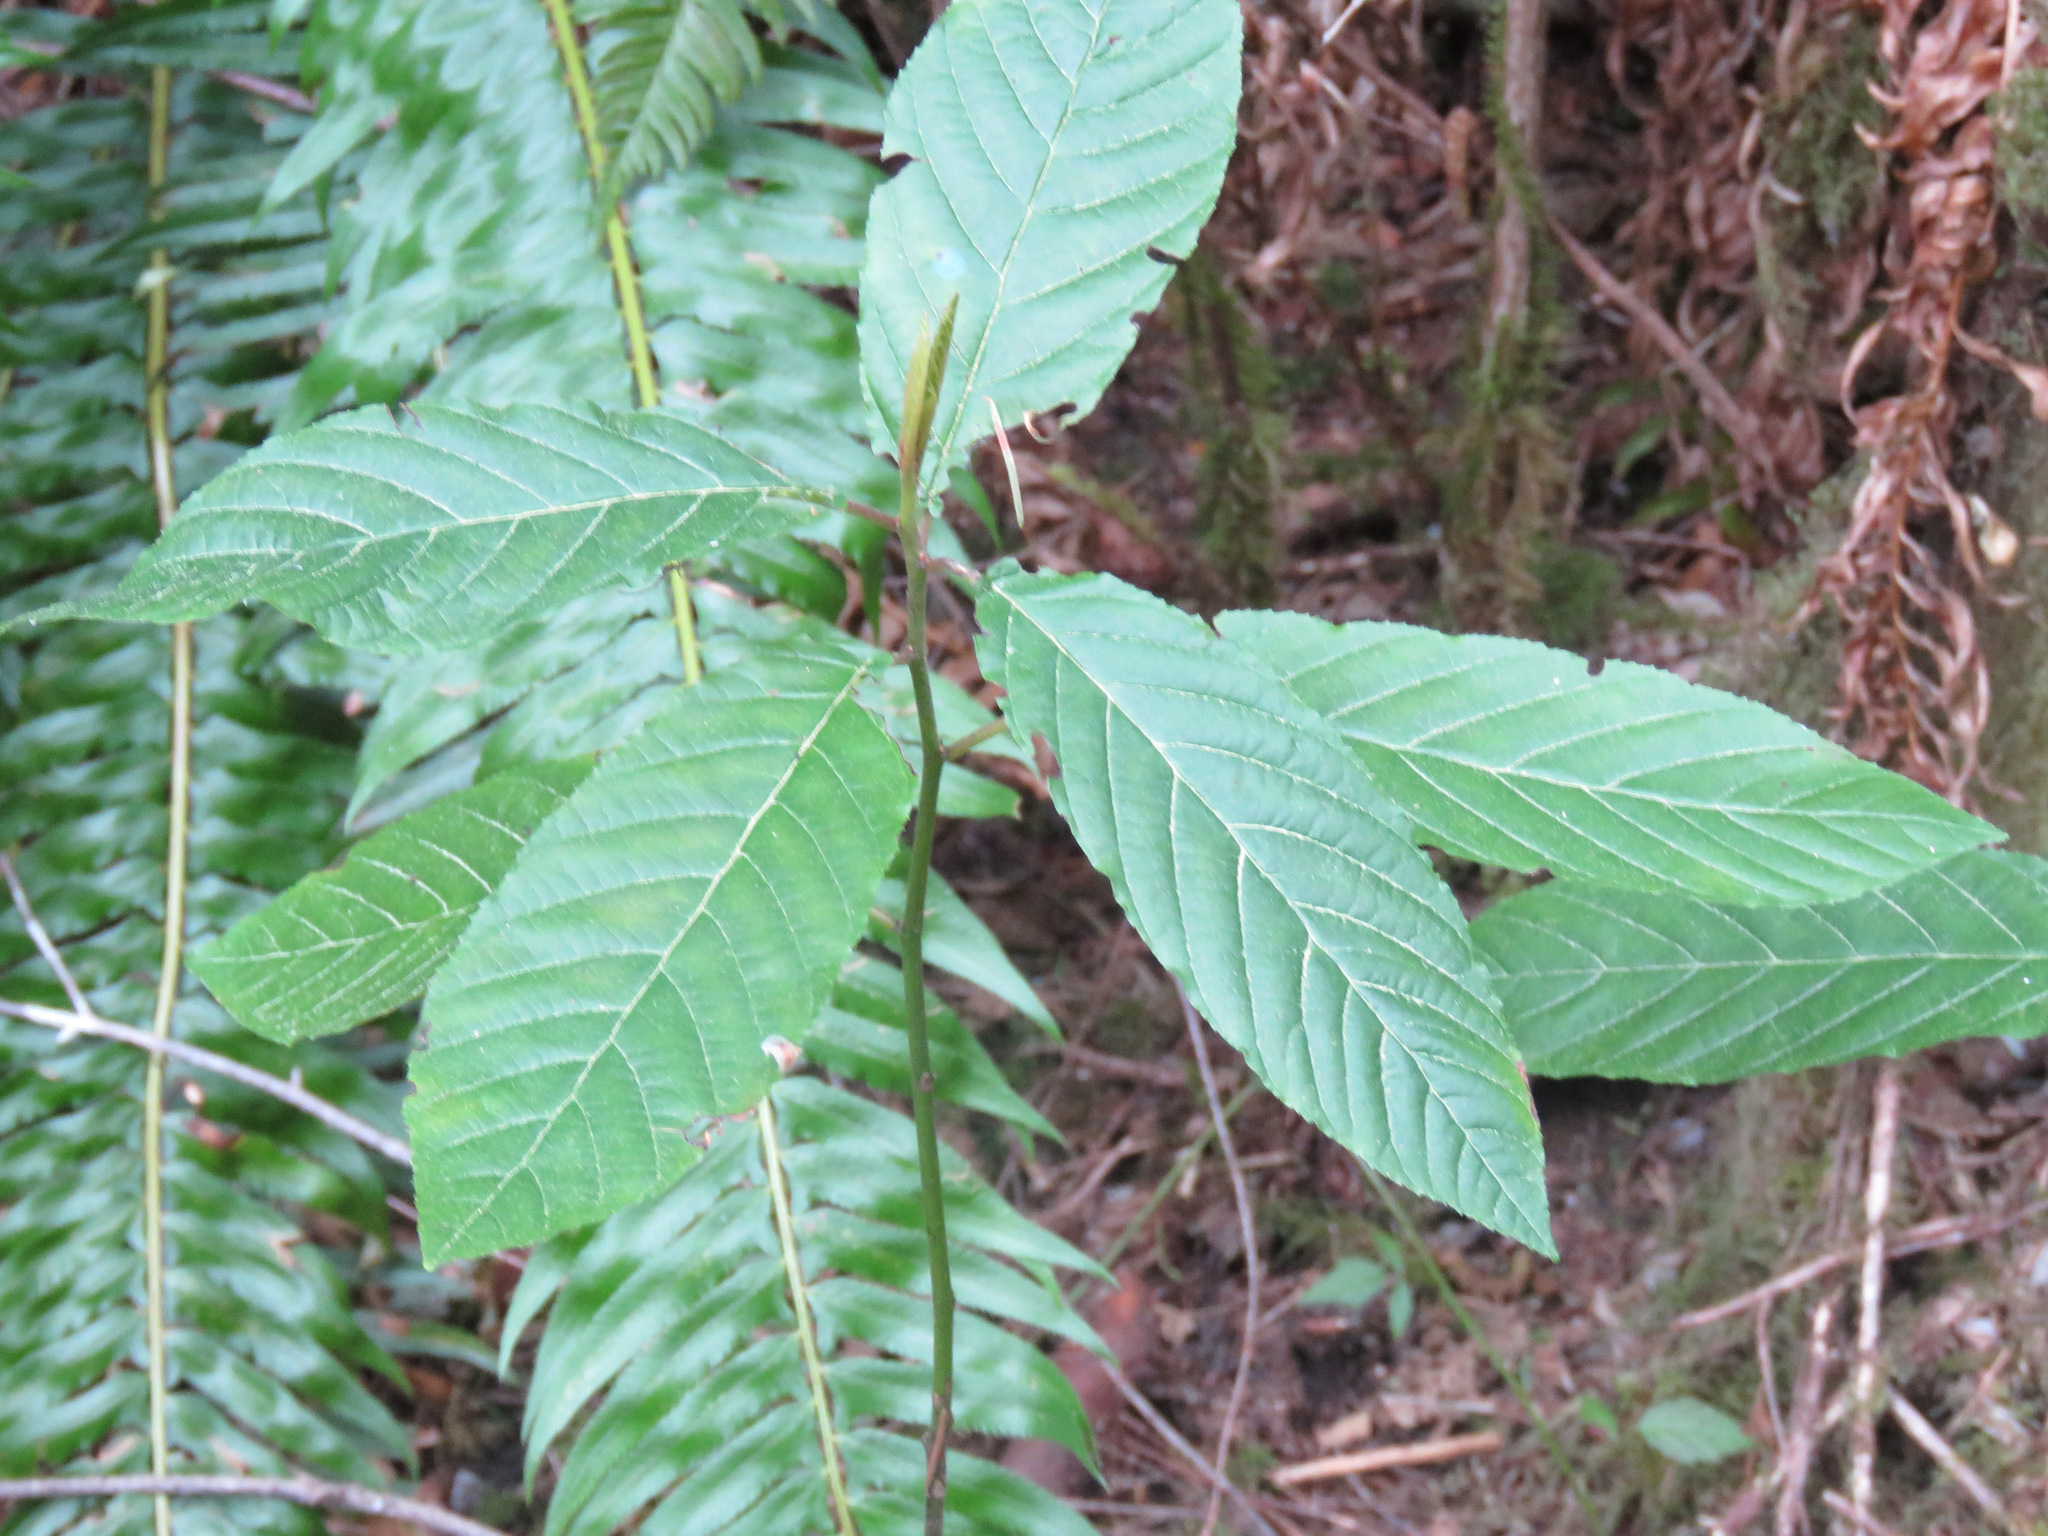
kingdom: Plantae
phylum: Tracheophyta
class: Magnoliopsida
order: Rosales
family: Rhamnaceae
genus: Frangula
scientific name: Frangula purshiana
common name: Cascara buckthorn
